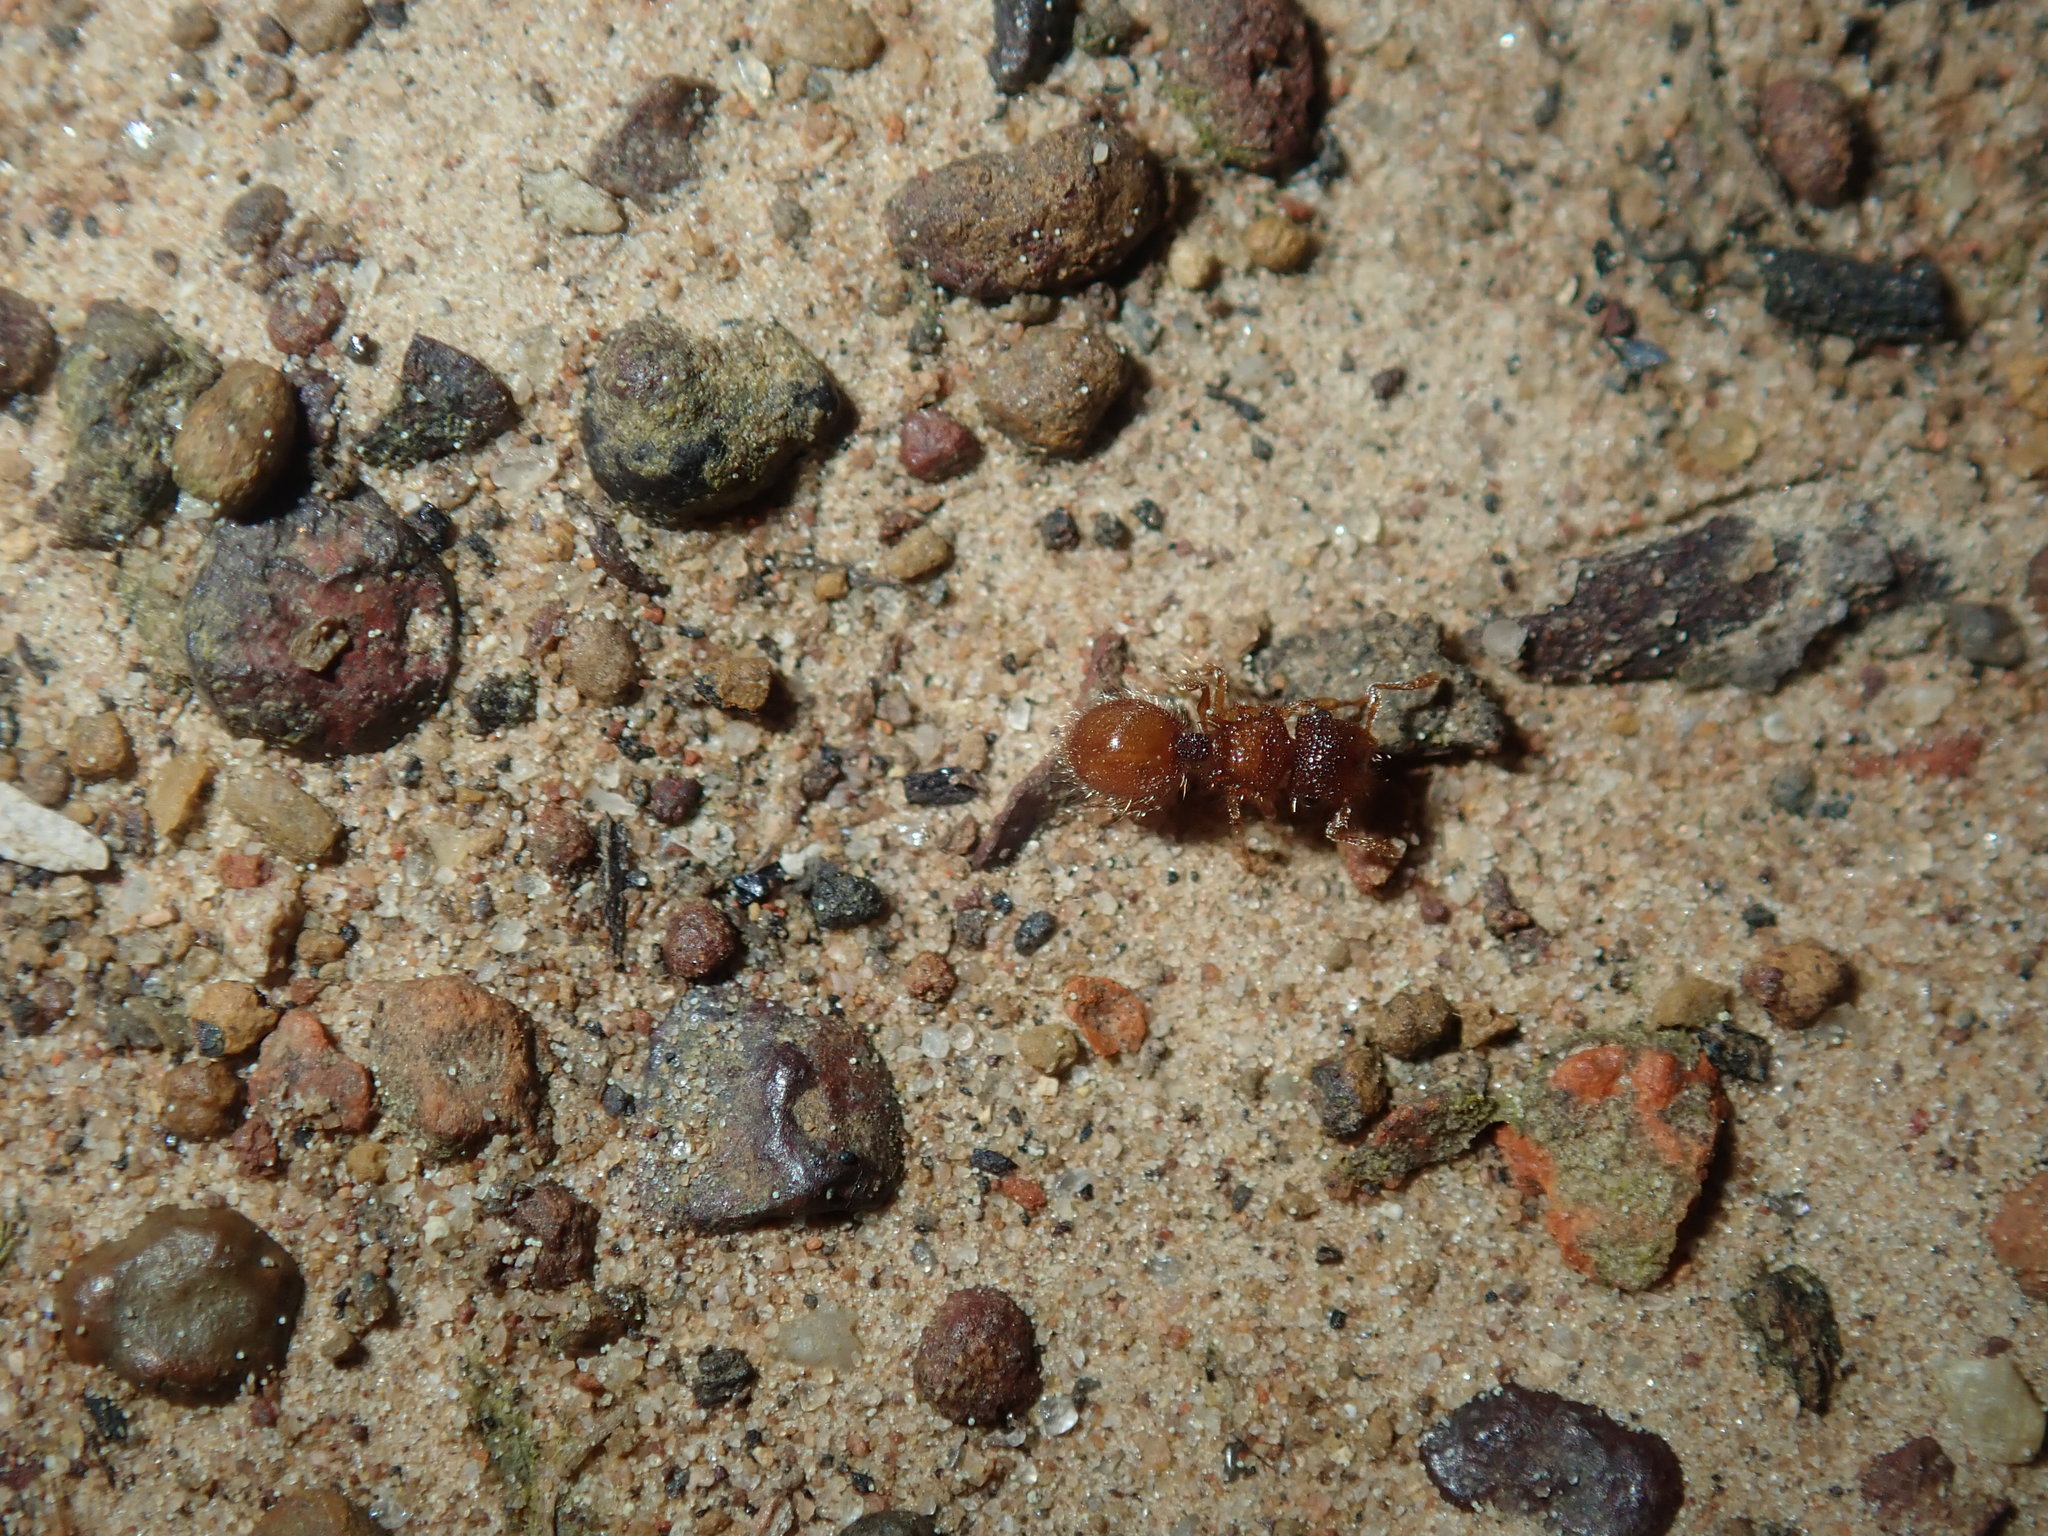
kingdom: Animalia
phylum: Arthropoda
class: Insecta
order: Hymenoptera
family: Formicidae
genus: Meranoplus
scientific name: Meranoplus froggatti
